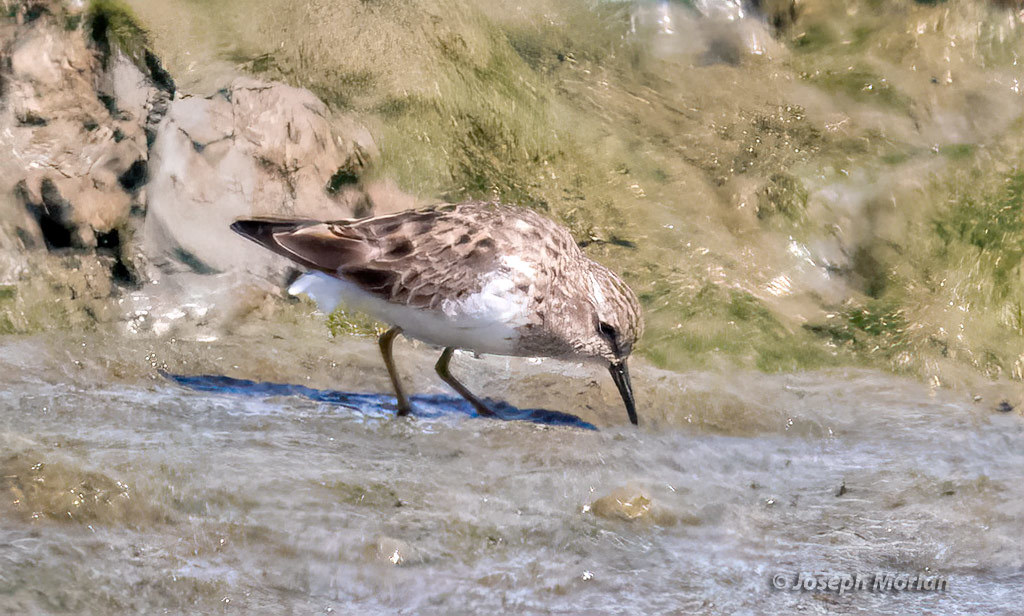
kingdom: Animalia
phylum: Chordata
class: Aves
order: Charadriiformes
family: Scolopacidae
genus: Calidris
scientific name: Calidris minutilla
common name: Least sandpiper
